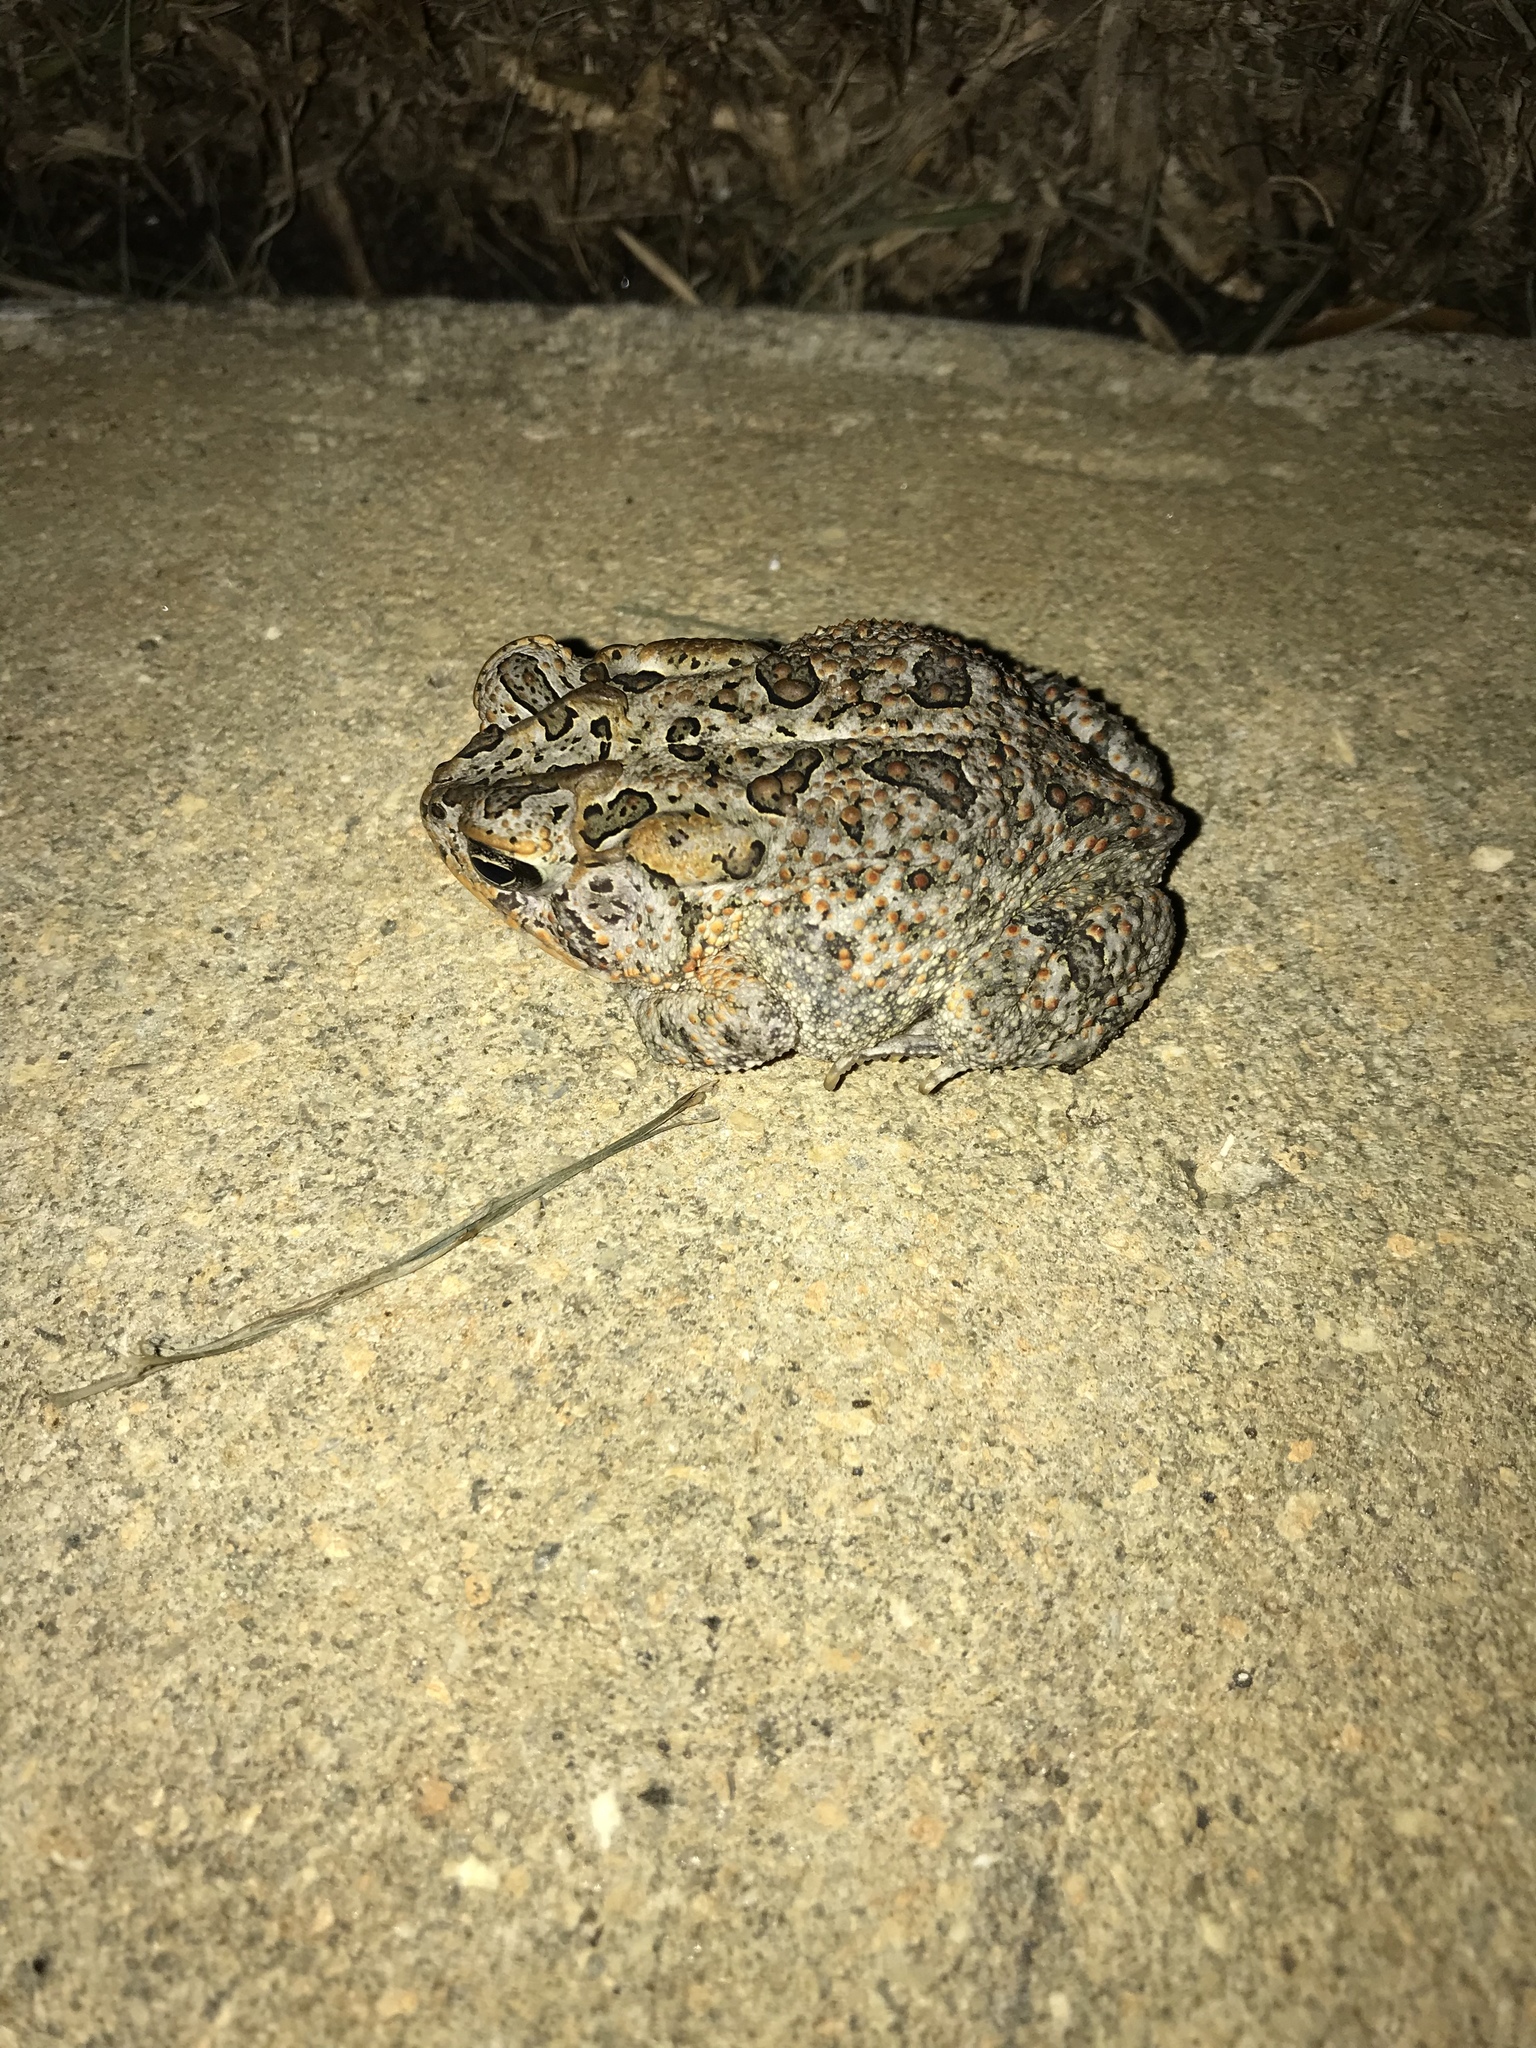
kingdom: Animalia
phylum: Chordata
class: Amphibia
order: Anura
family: Bufonidae
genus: Anaxyrus
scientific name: Anaxyrus terrestris
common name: Southern toad
